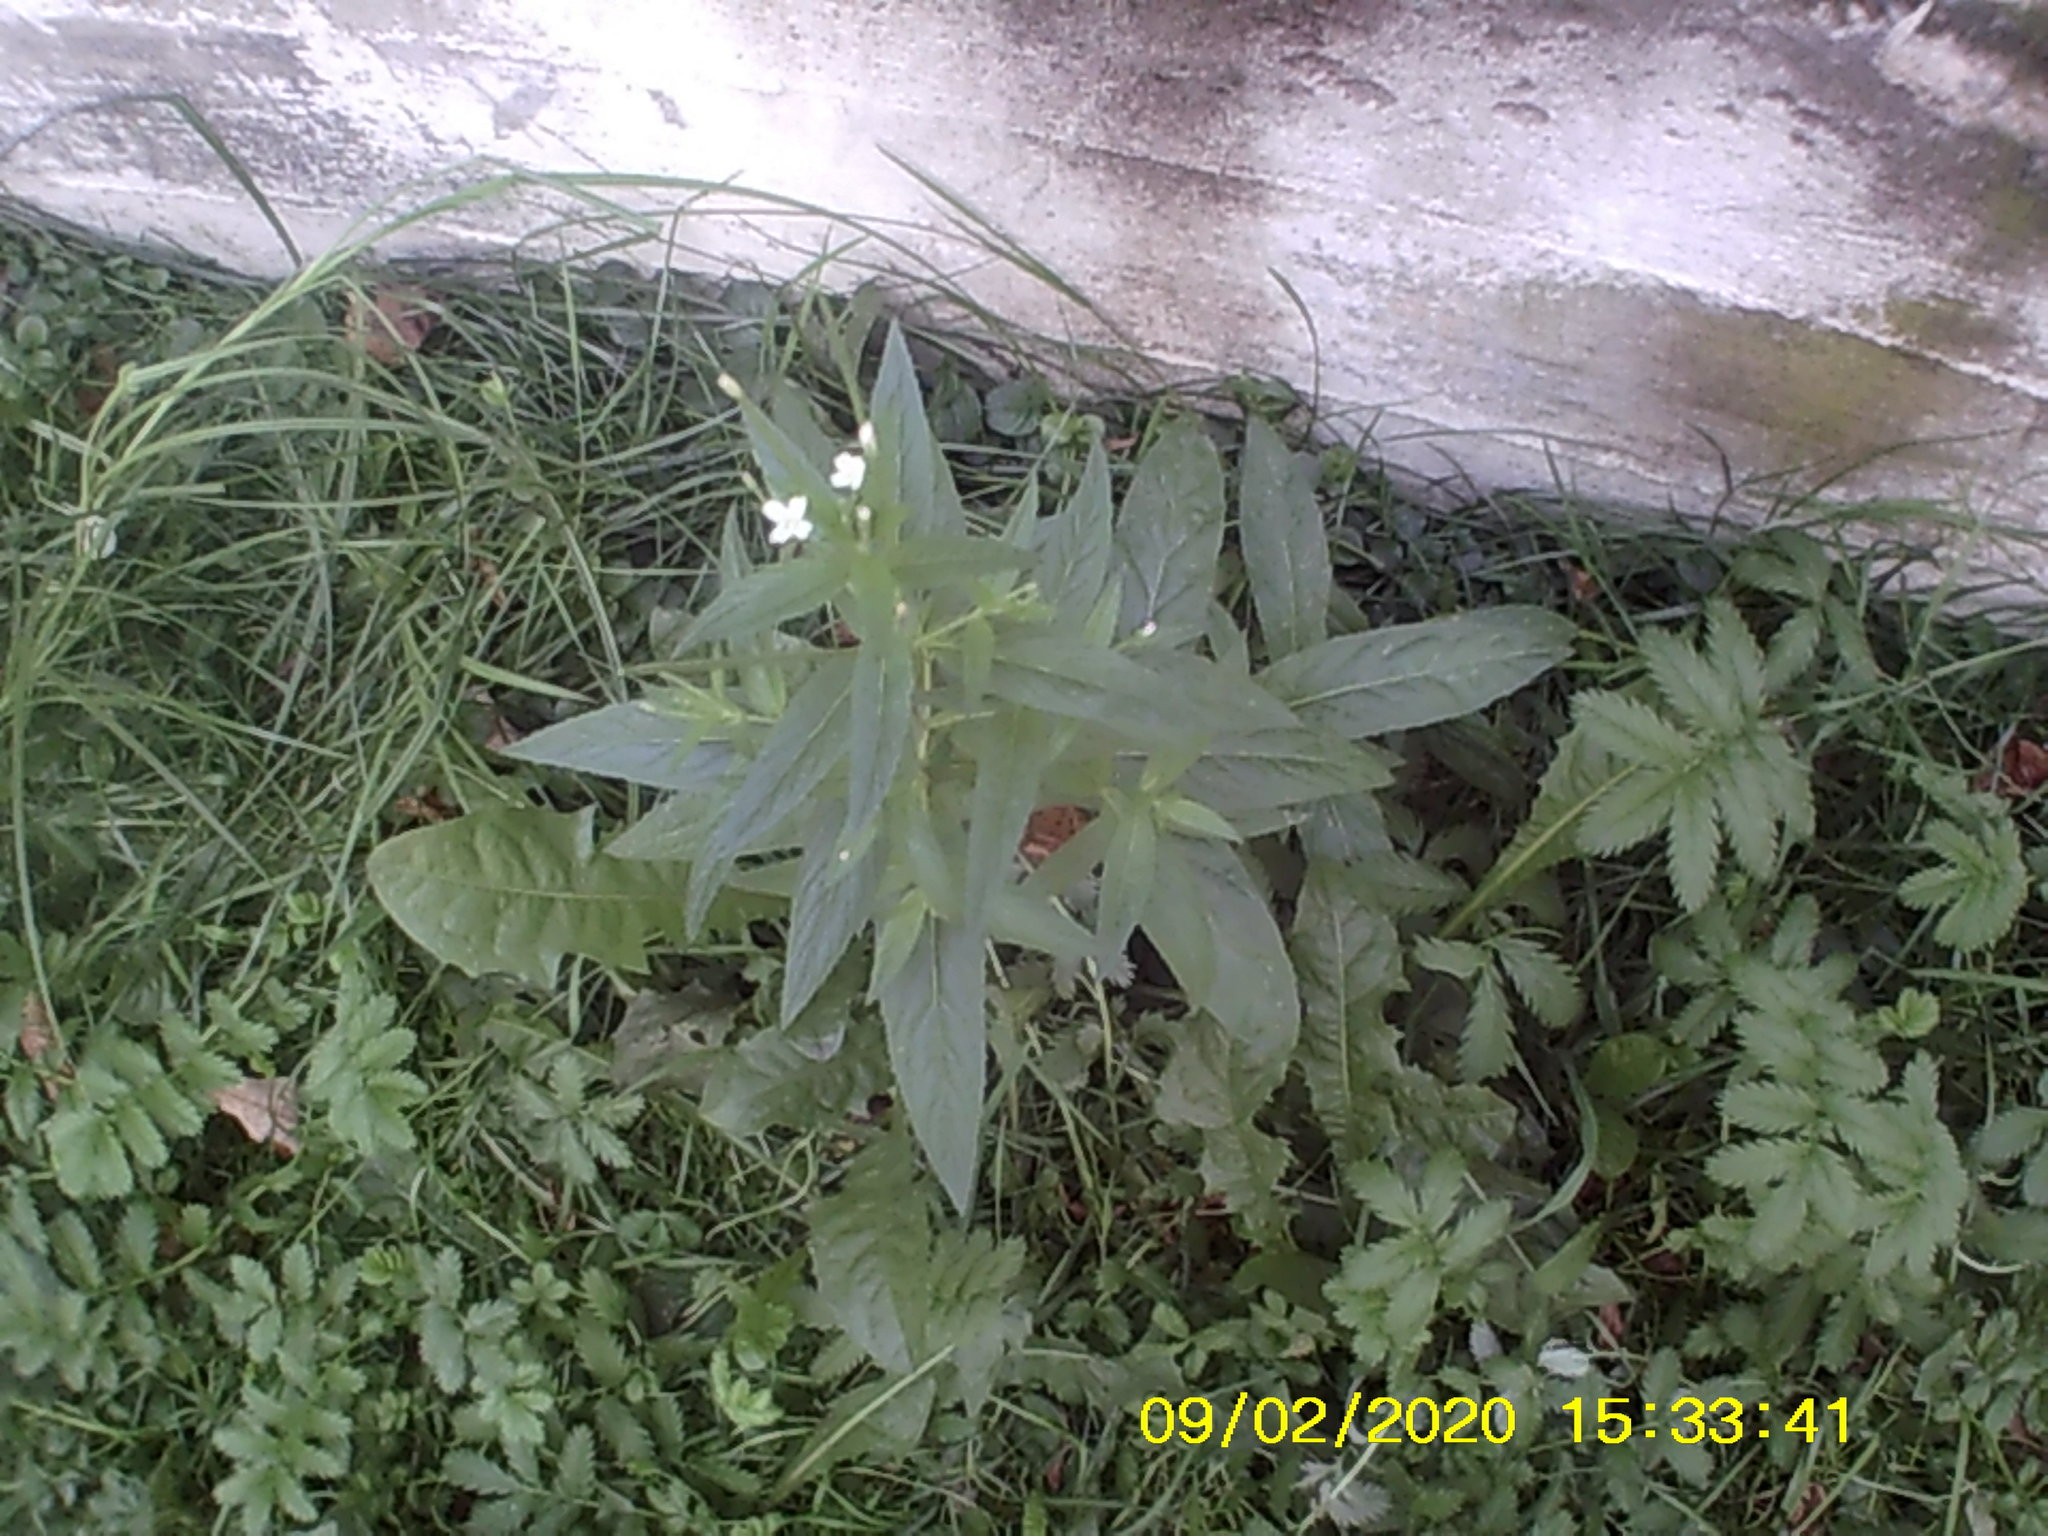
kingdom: Plantae
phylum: Tracheophyta
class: Magnoliopsida
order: Myrtales
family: Onagraceae
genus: Epilobium
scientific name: Epilobium pseudorubescens
